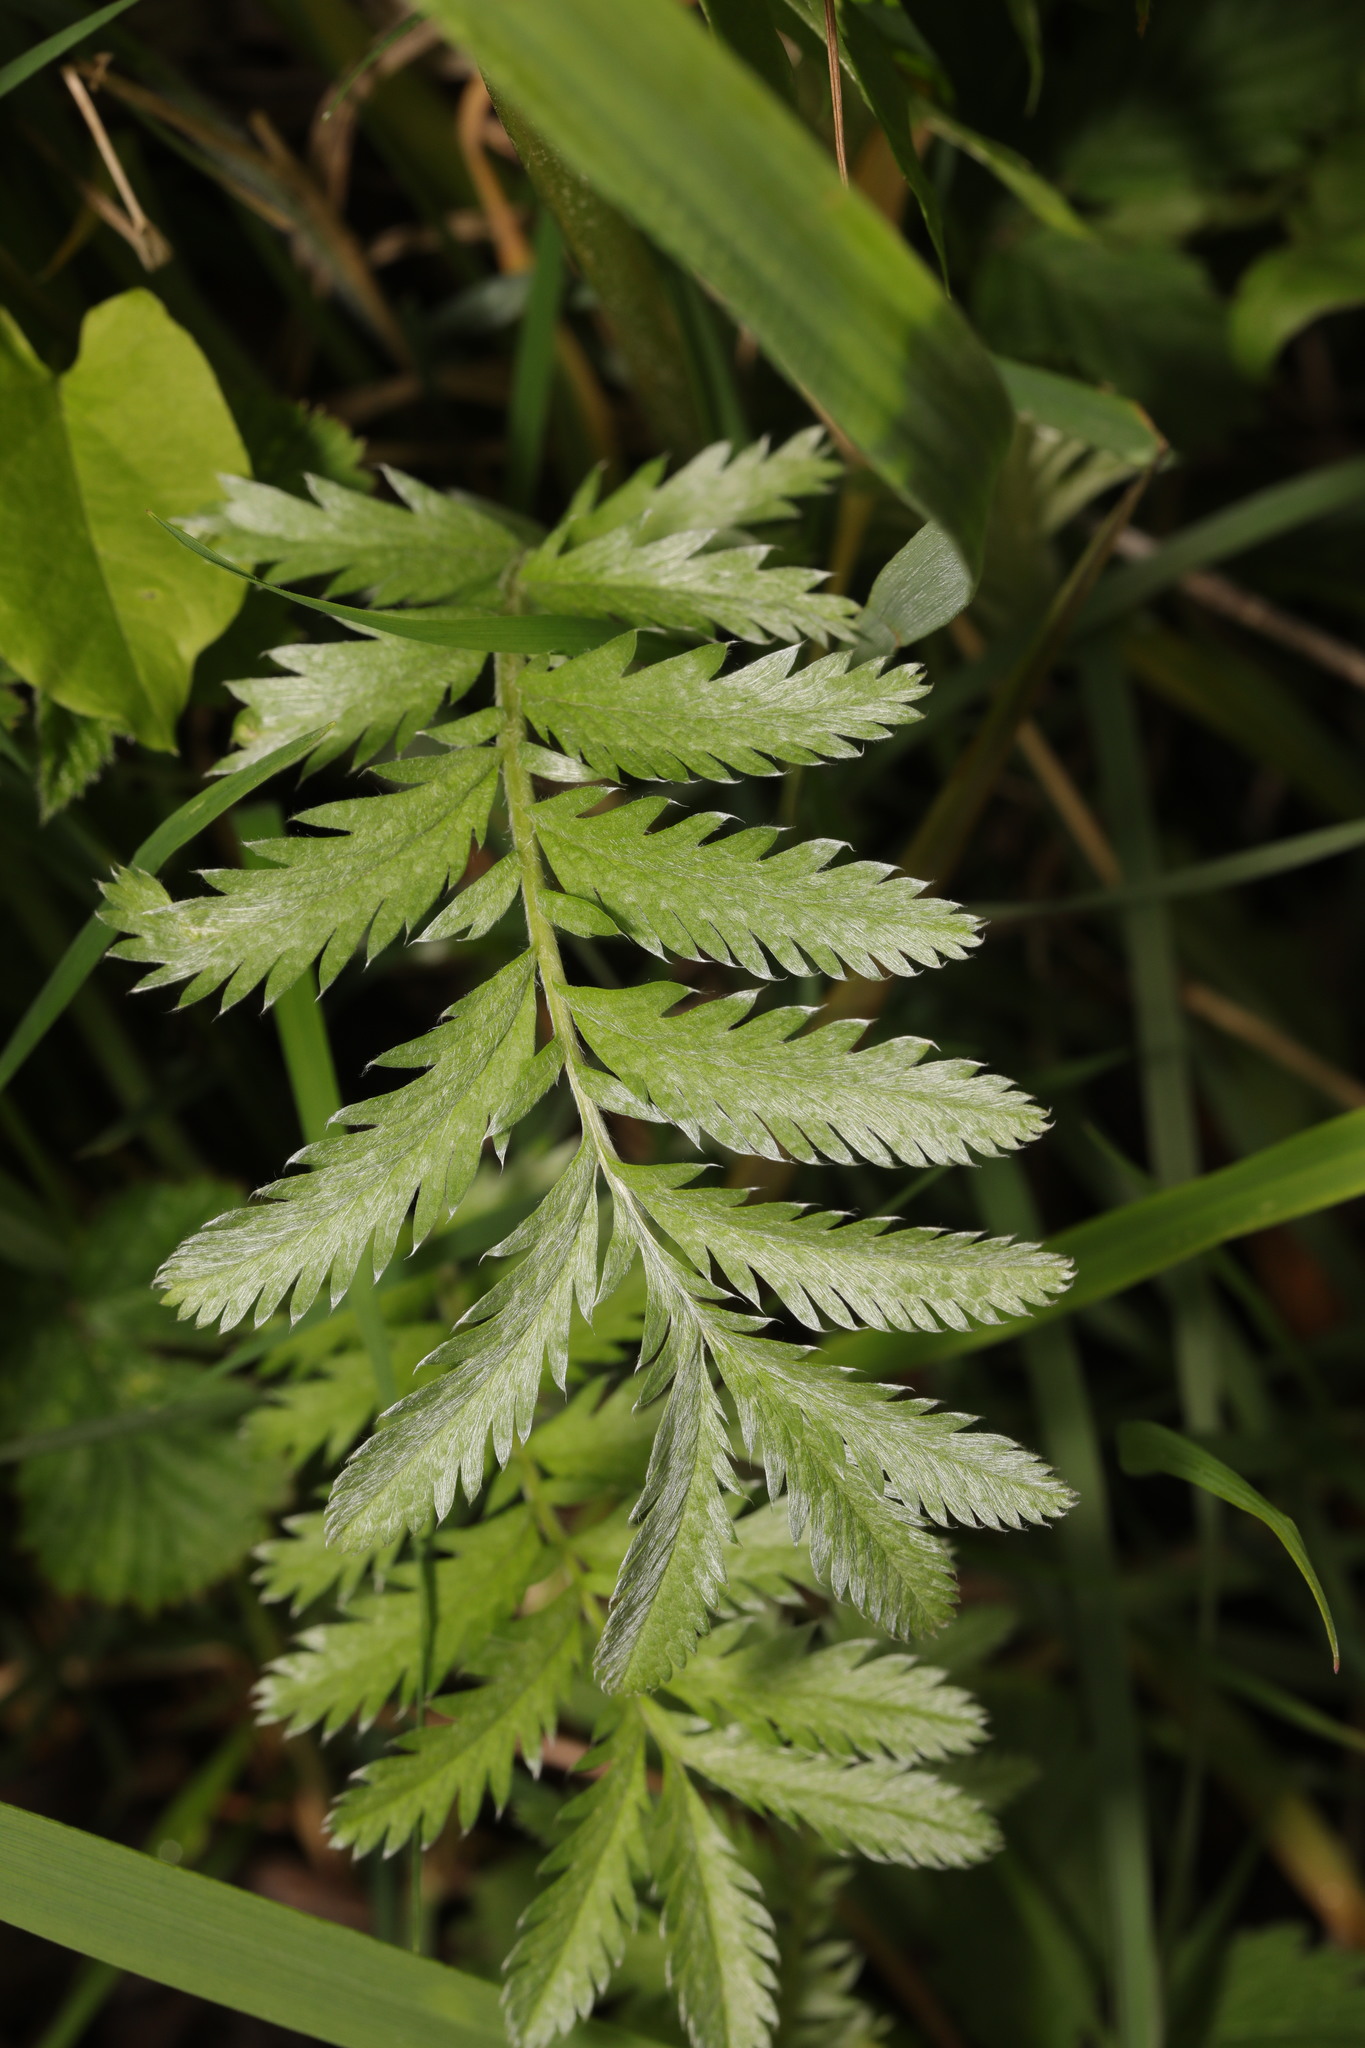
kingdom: Plantae
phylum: Tracheophyta
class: Magnoliopsida
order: Rosales
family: Rosaceae
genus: Argentina
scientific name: Argentina anserina
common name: Common silverweed
